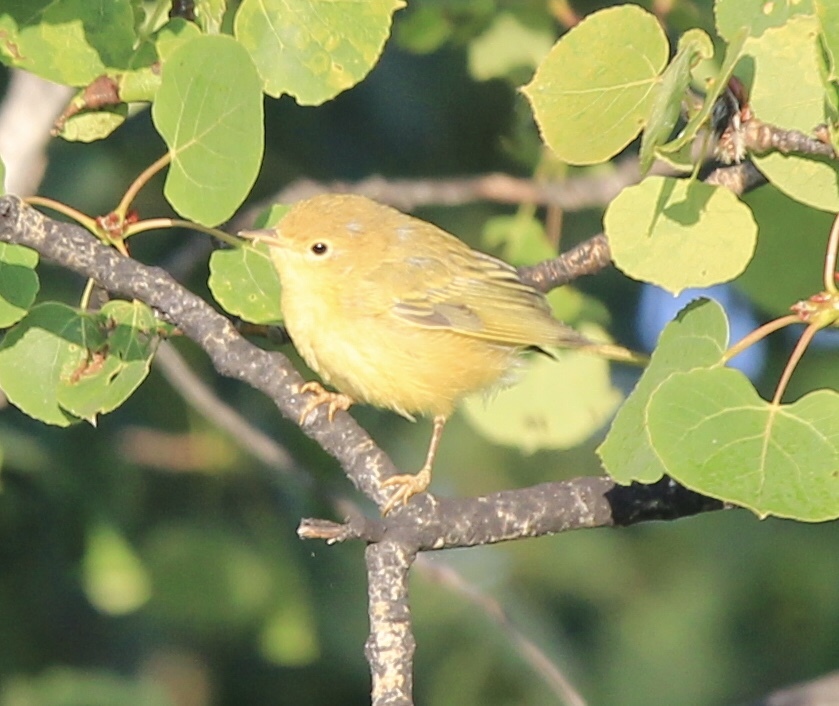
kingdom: Animalia
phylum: Chordata
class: Aves
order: Passeriformes
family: Parulidae
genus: Setophaga
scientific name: Setophaga petechia
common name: Yellow warbler
